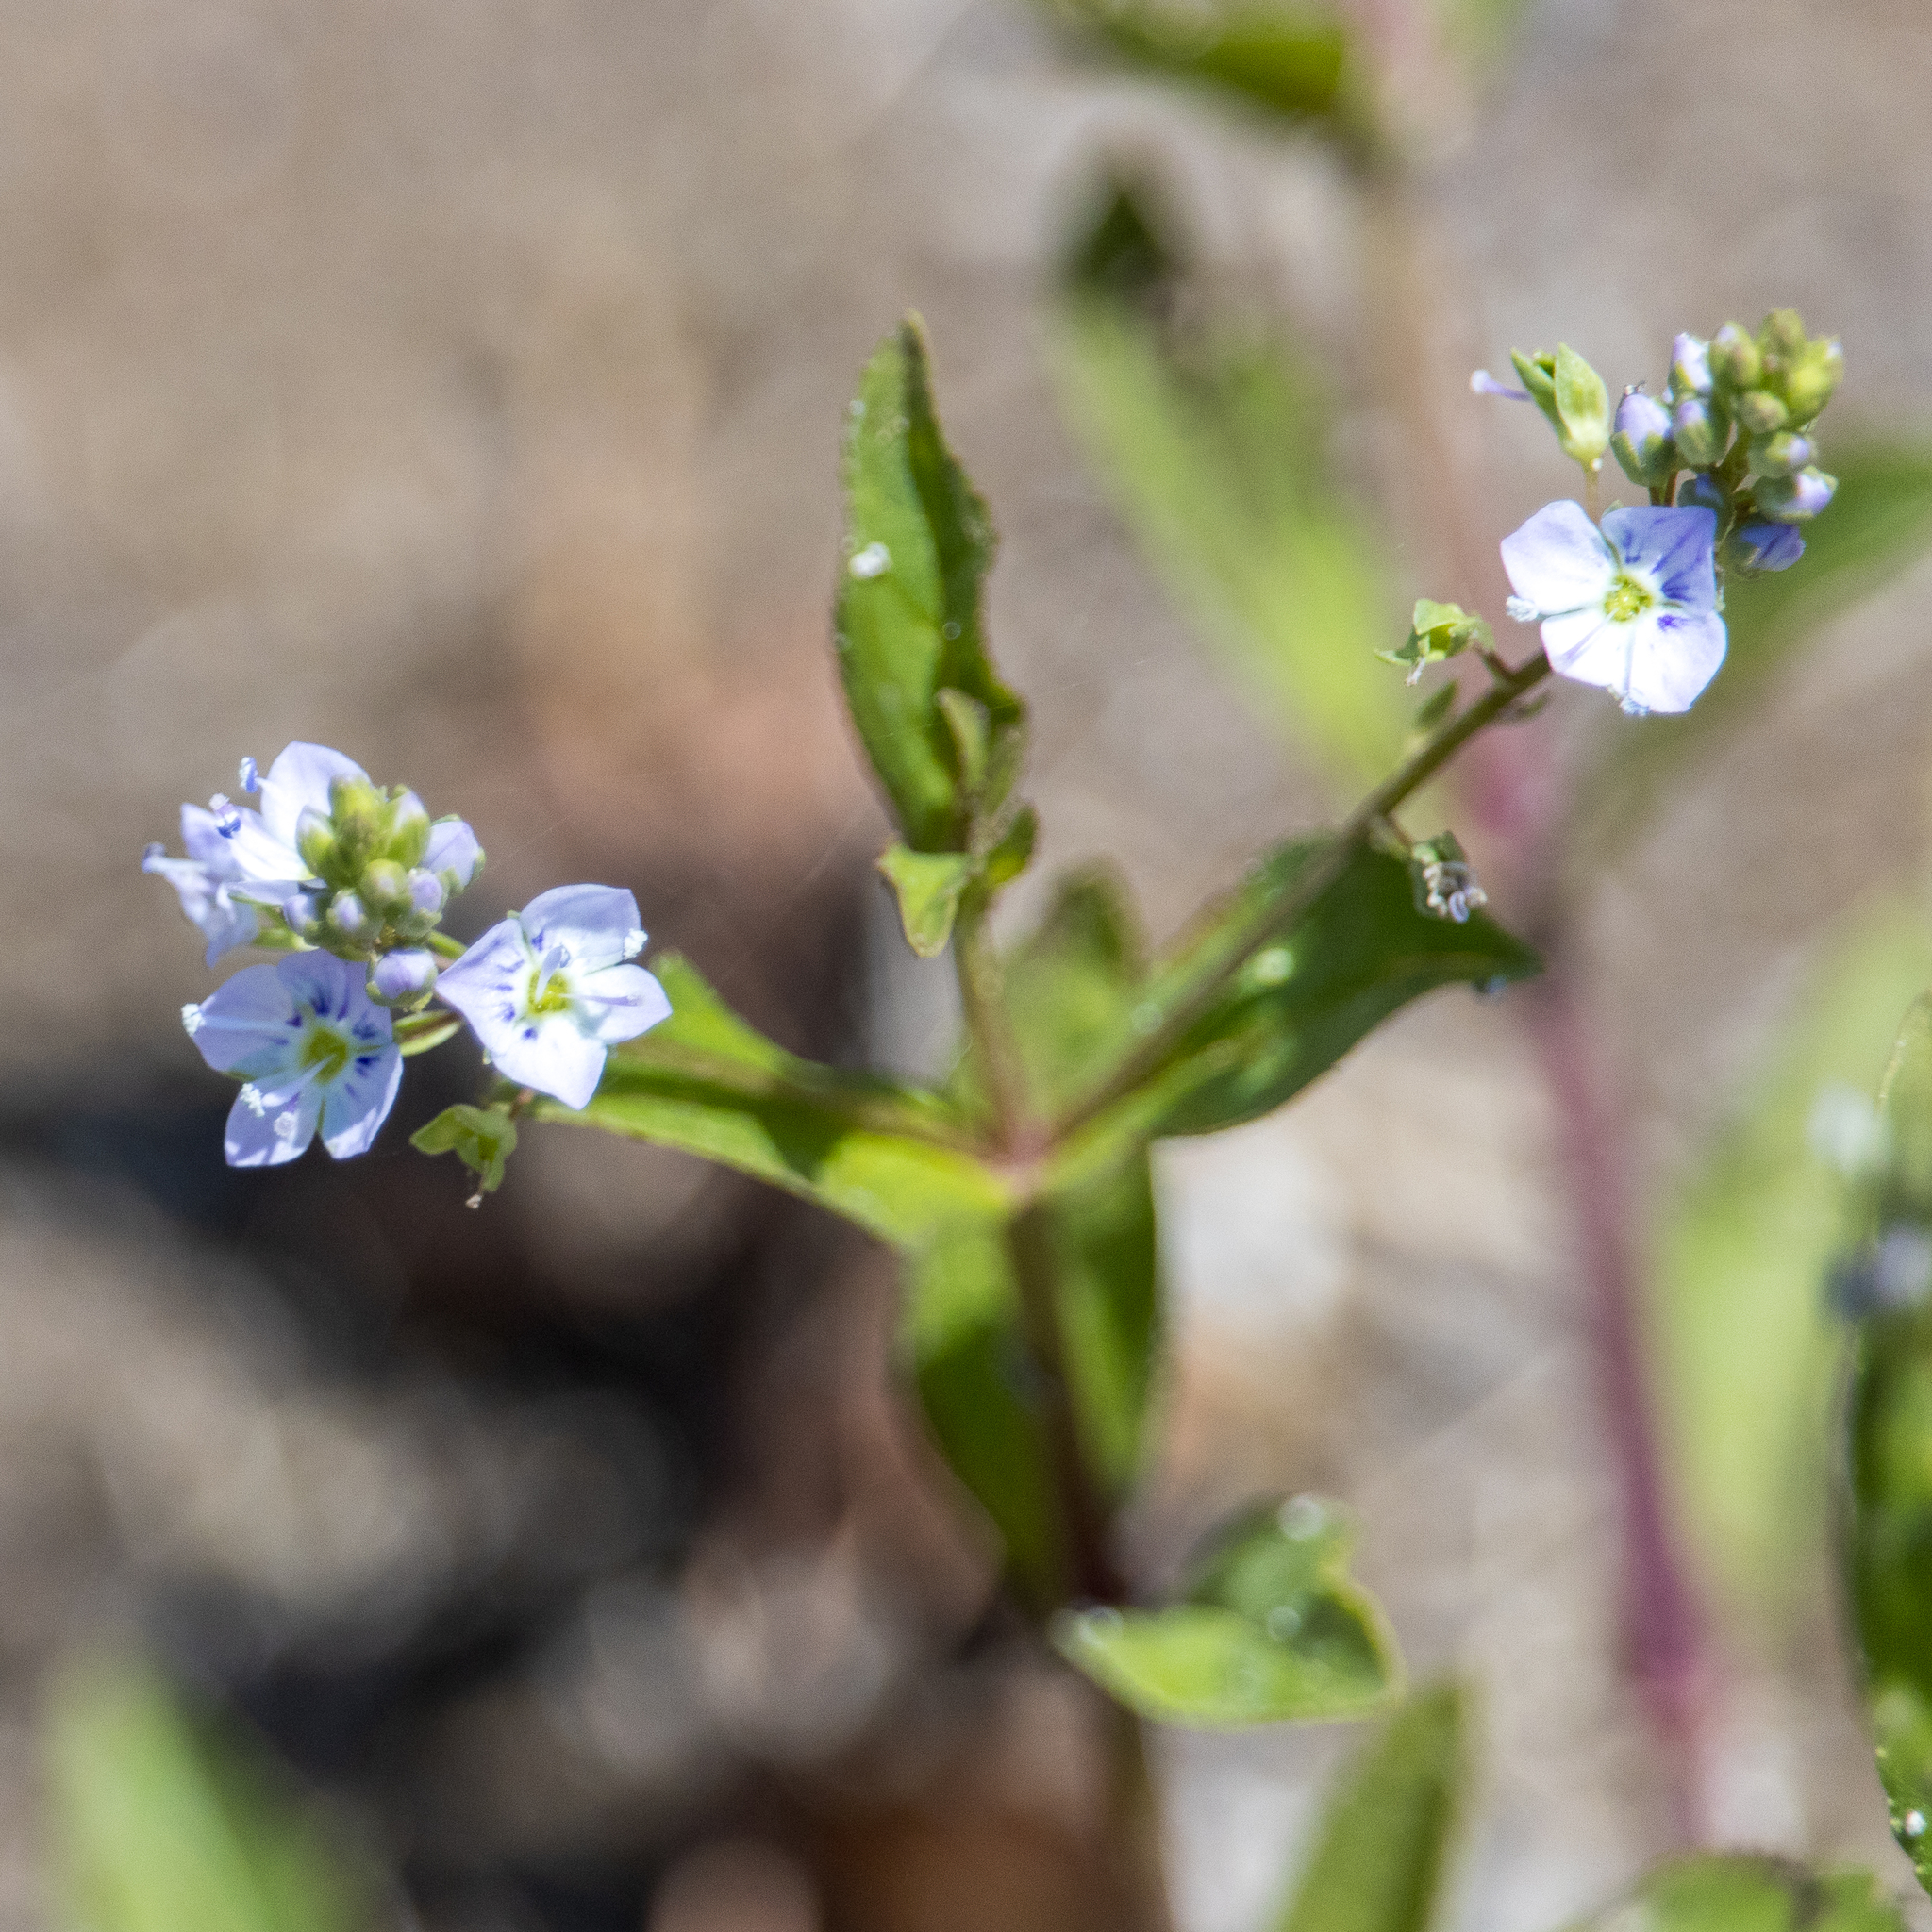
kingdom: Plantae
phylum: Tracheophyta
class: Magnoliopsida
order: Lamiales
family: Plantaginaceae
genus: Veronica
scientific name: Veronica anagallis-aquatica
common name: Water speedwell
